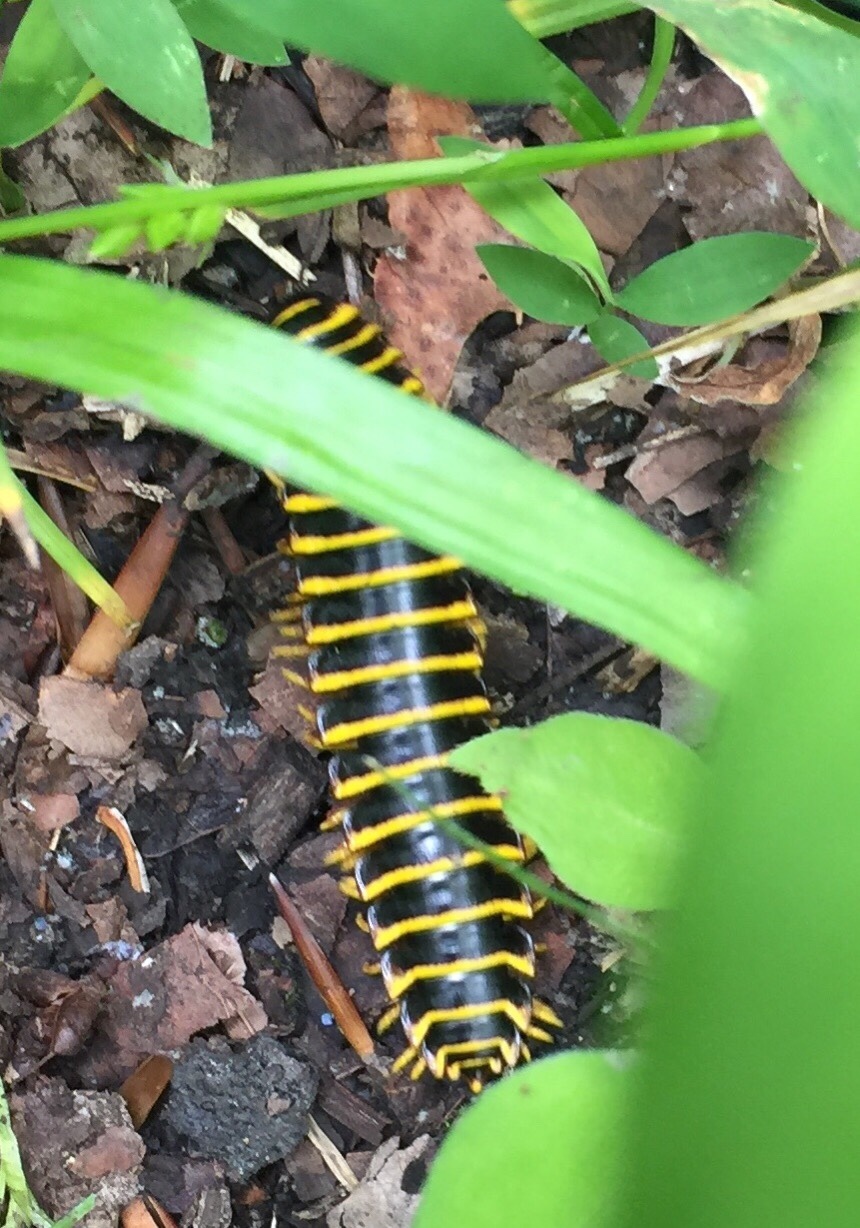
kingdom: Animalia
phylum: Arthropoda
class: Diplopoda
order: Polydesmida
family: Xystodesmidae
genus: Apheloria
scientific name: Apheloria virginiensis
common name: Black-and-gold flat millipede
